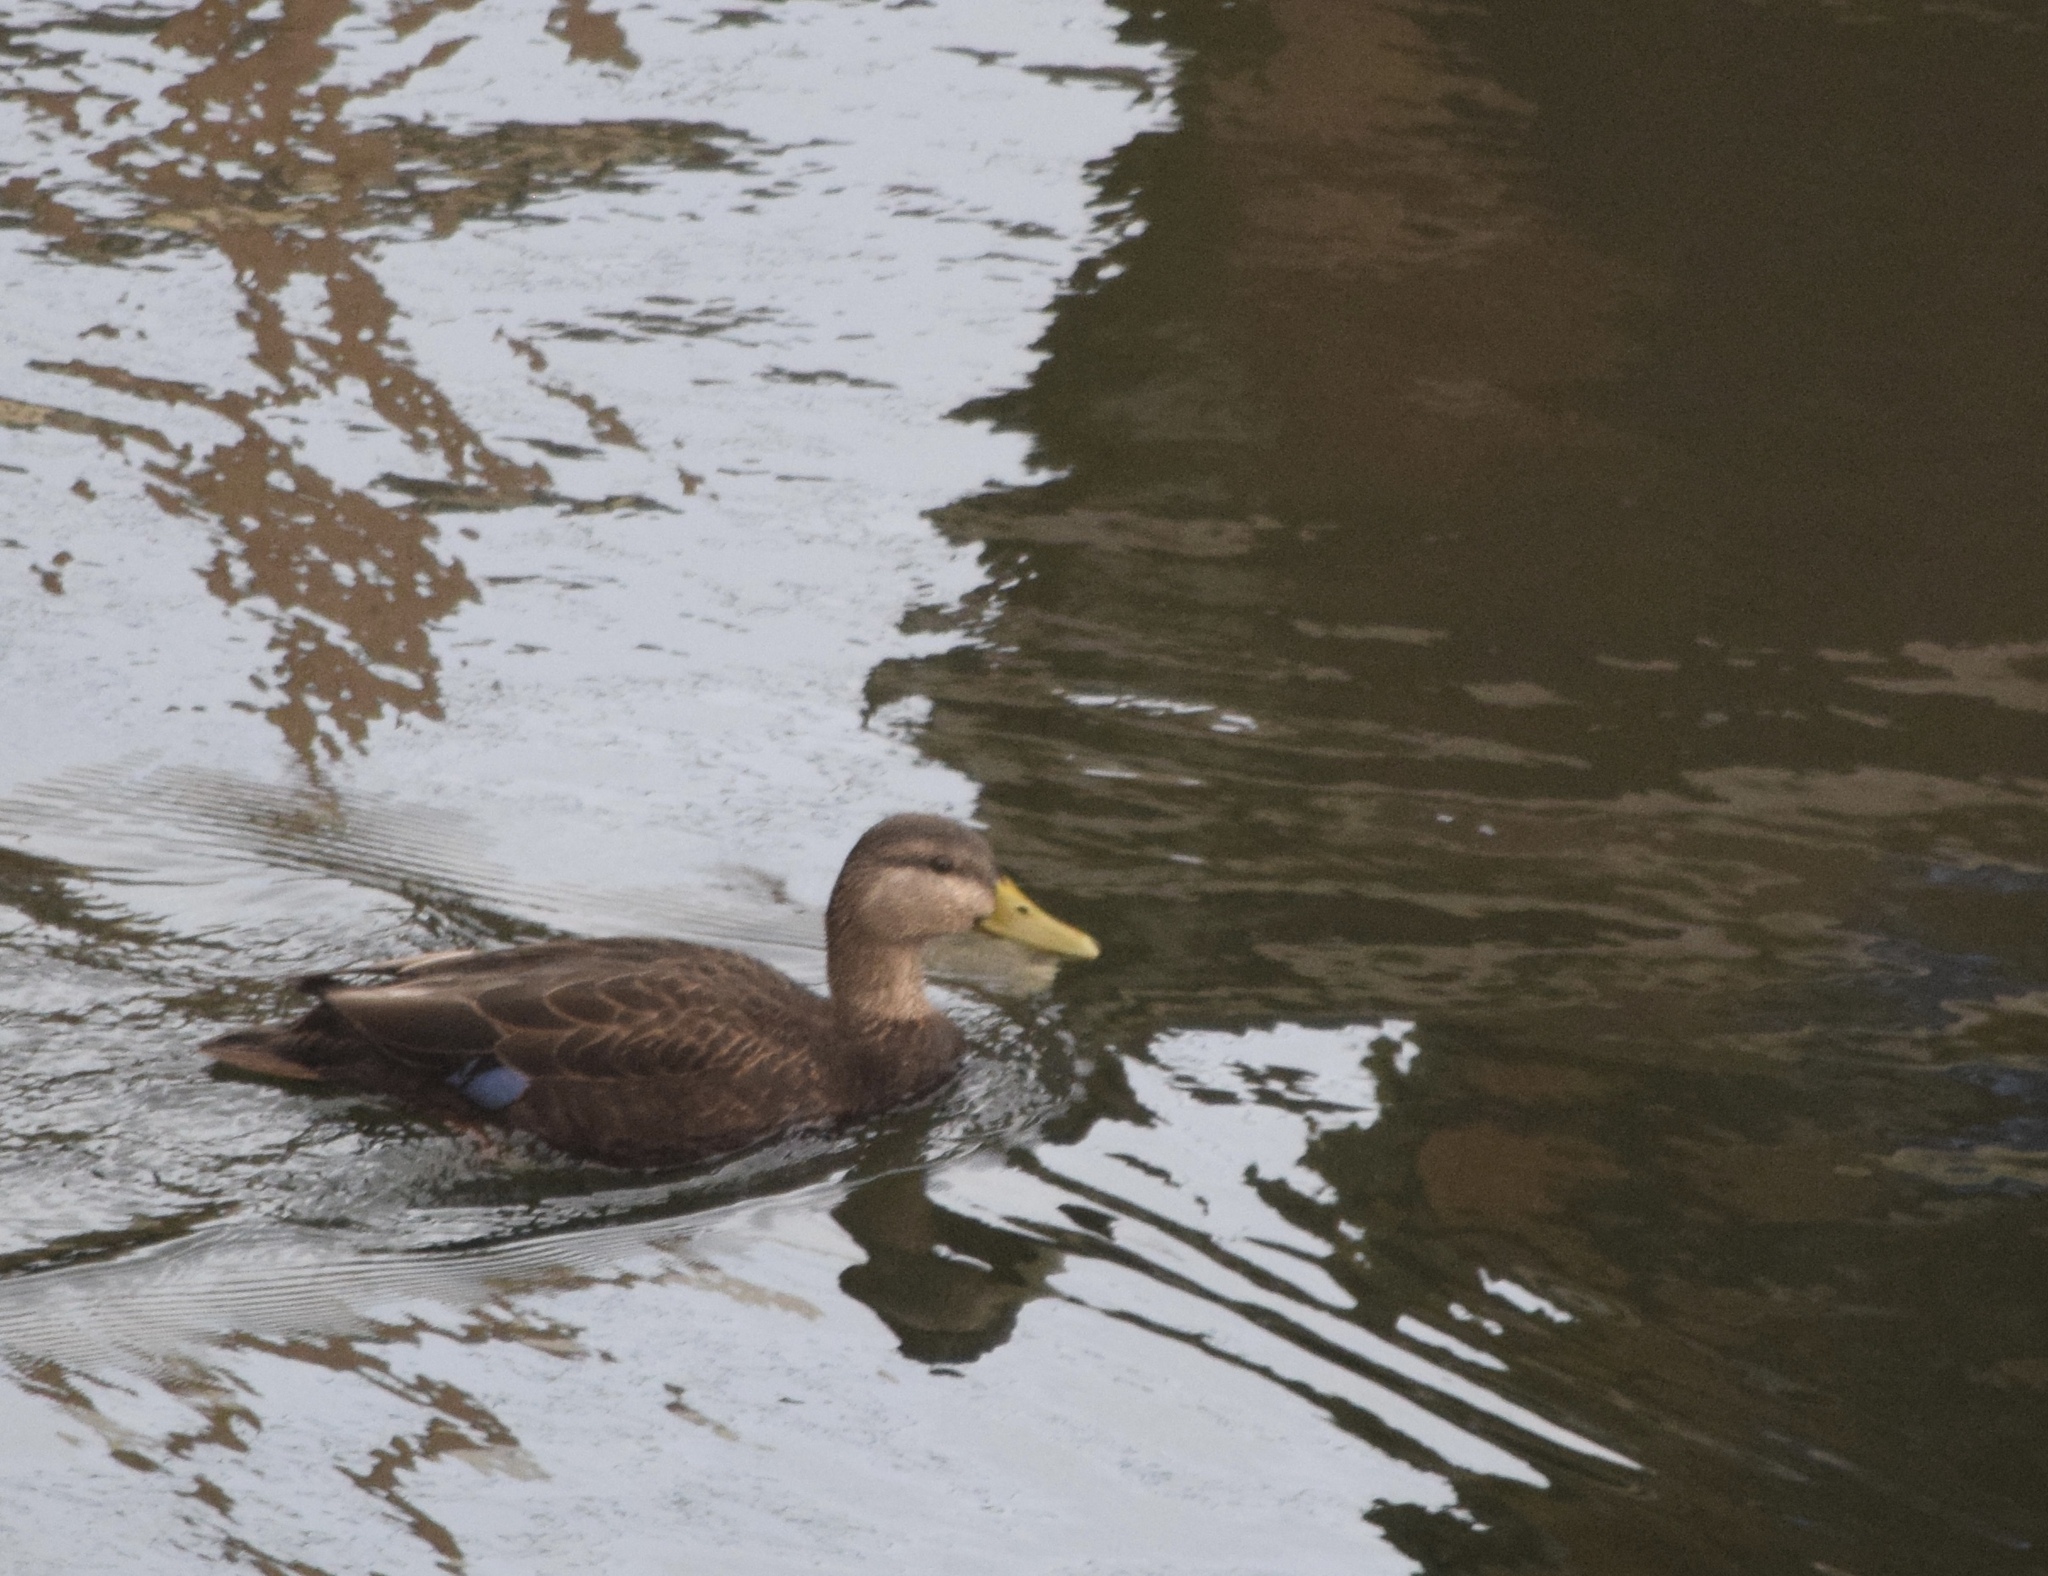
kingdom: Animalia
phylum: Chordata
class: Aves
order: Anseriformes
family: Anatidae
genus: Anas
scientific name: Anas rubripes
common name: American black duck
